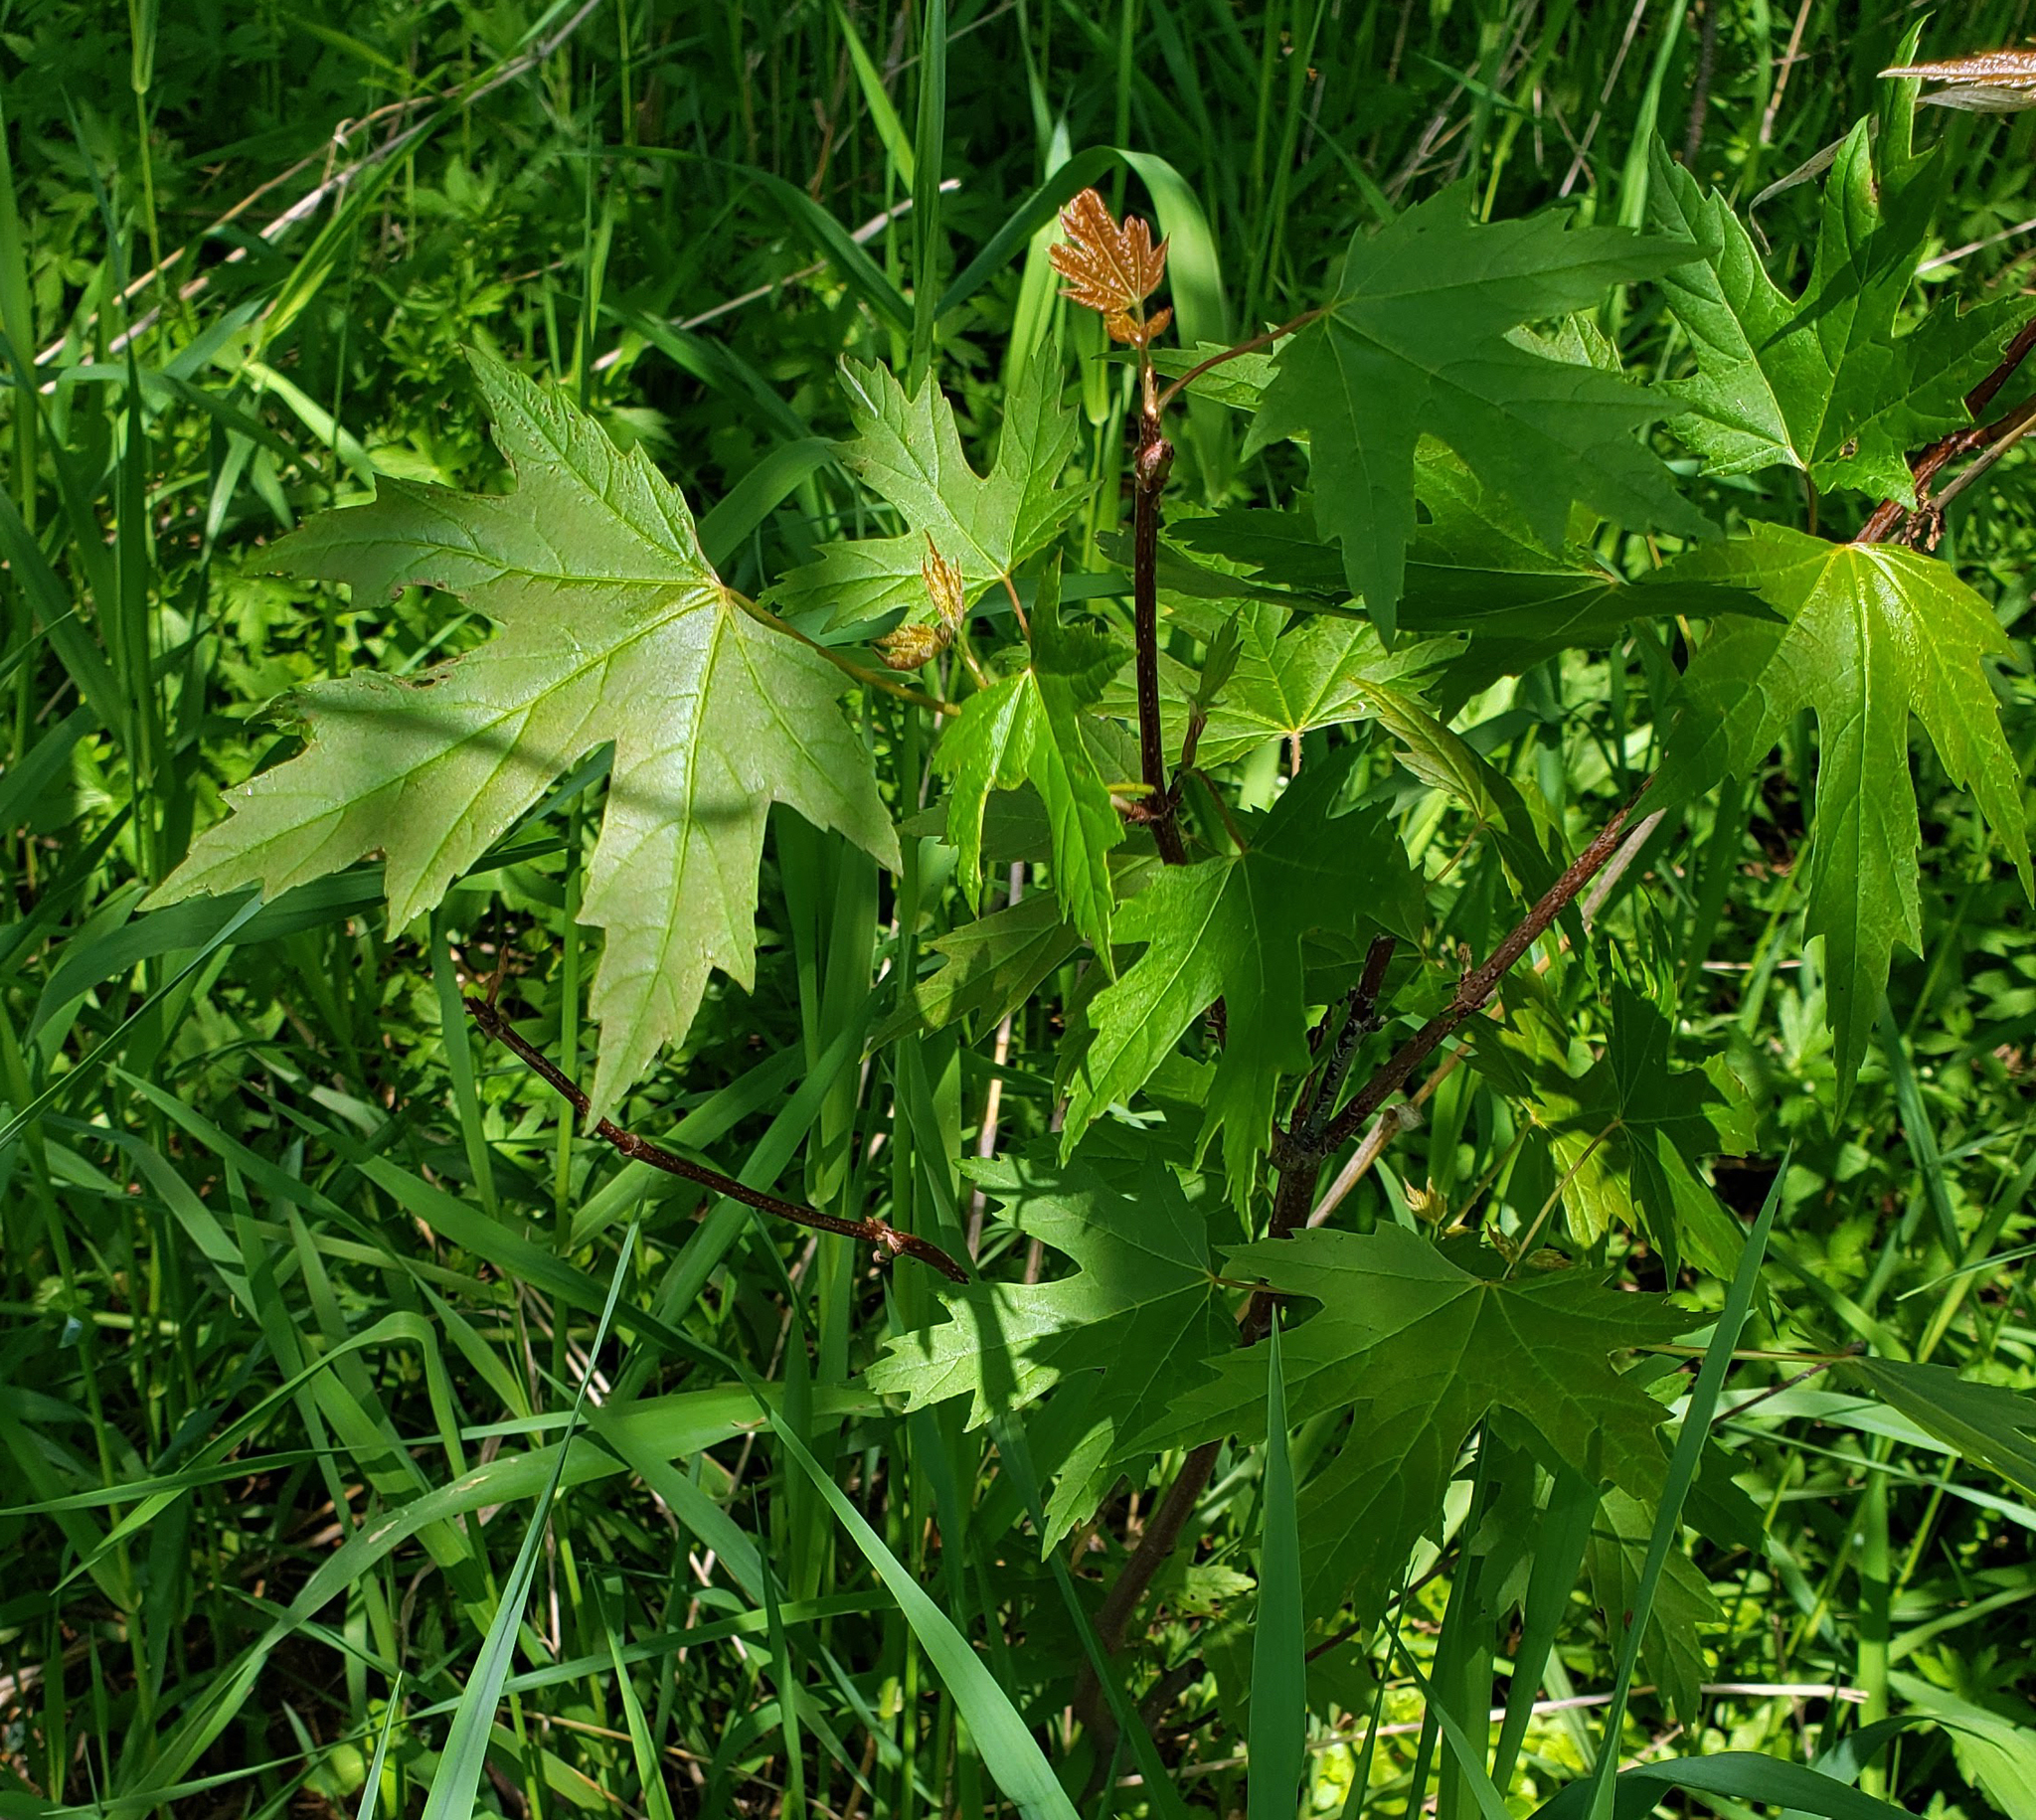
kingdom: Plantae
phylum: Tracheophyta
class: Magnoliopsida
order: Sapindales
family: Sapindaceae
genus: Acer
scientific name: Acer saccharinum
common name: Silver maple
